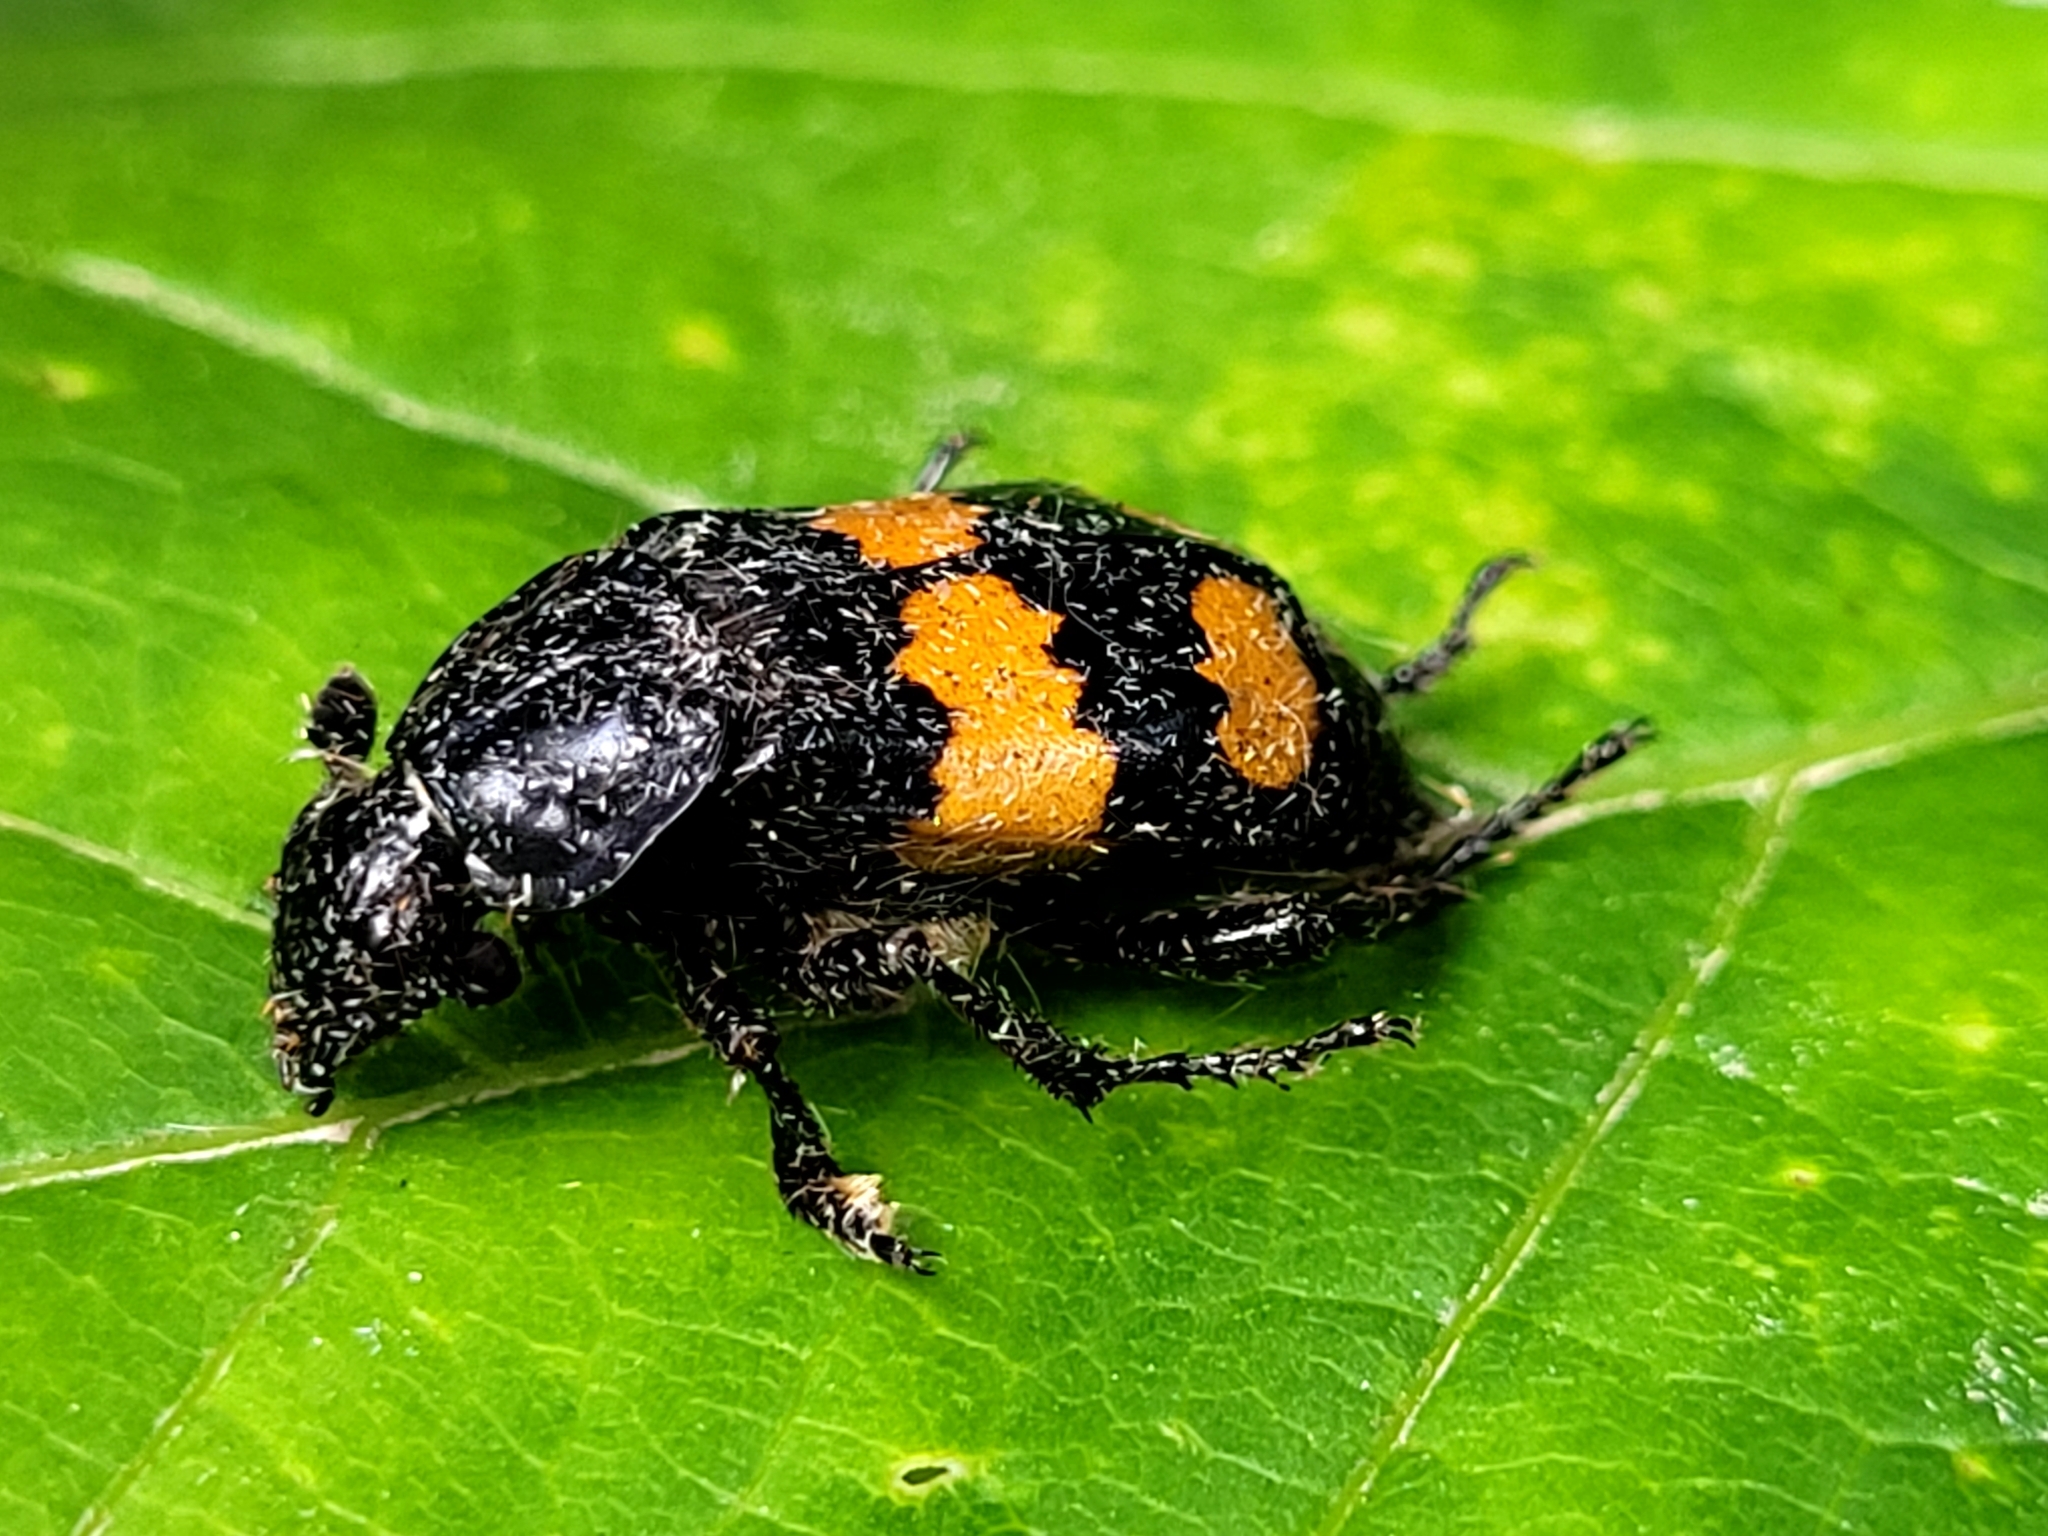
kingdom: Animalia
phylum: Arthropoda
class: Insecta
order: Coleoptera
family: Staphylinidae
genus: Nicrophorus
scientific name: Nicrophorus defodiens
